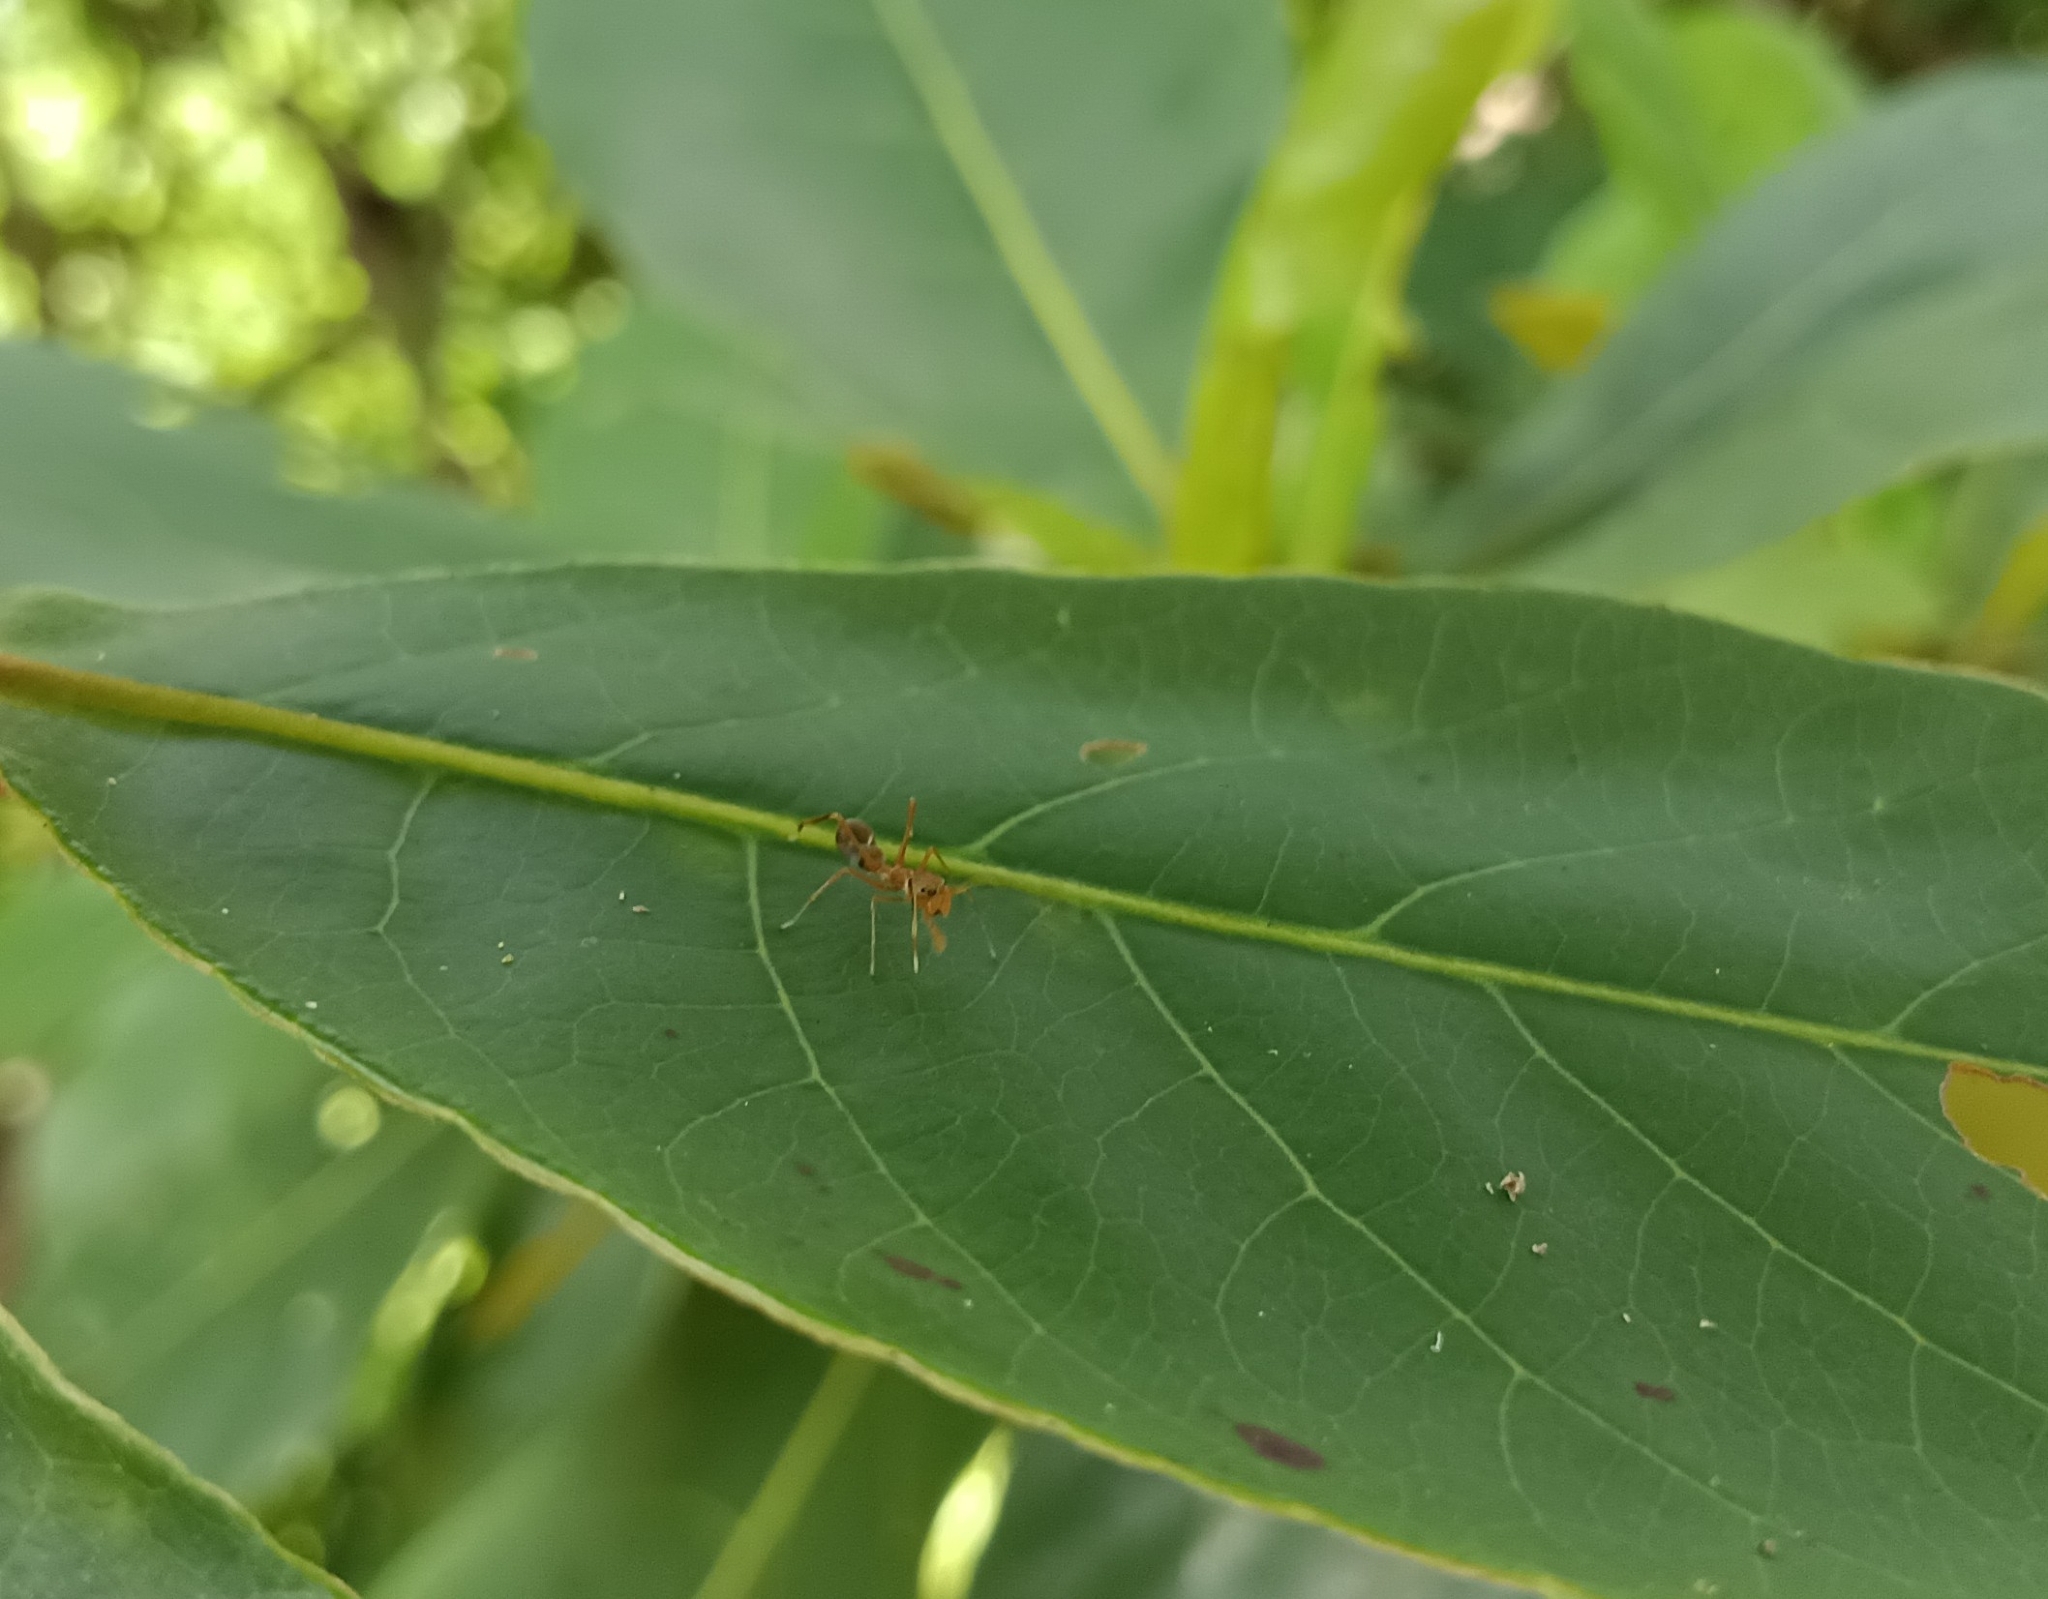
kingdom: Animalia
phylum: Arthropoda
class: Arachnida
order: Araneae
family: Salticidae
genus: Myrmaplata
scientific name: Myrmaplata plataleoides
